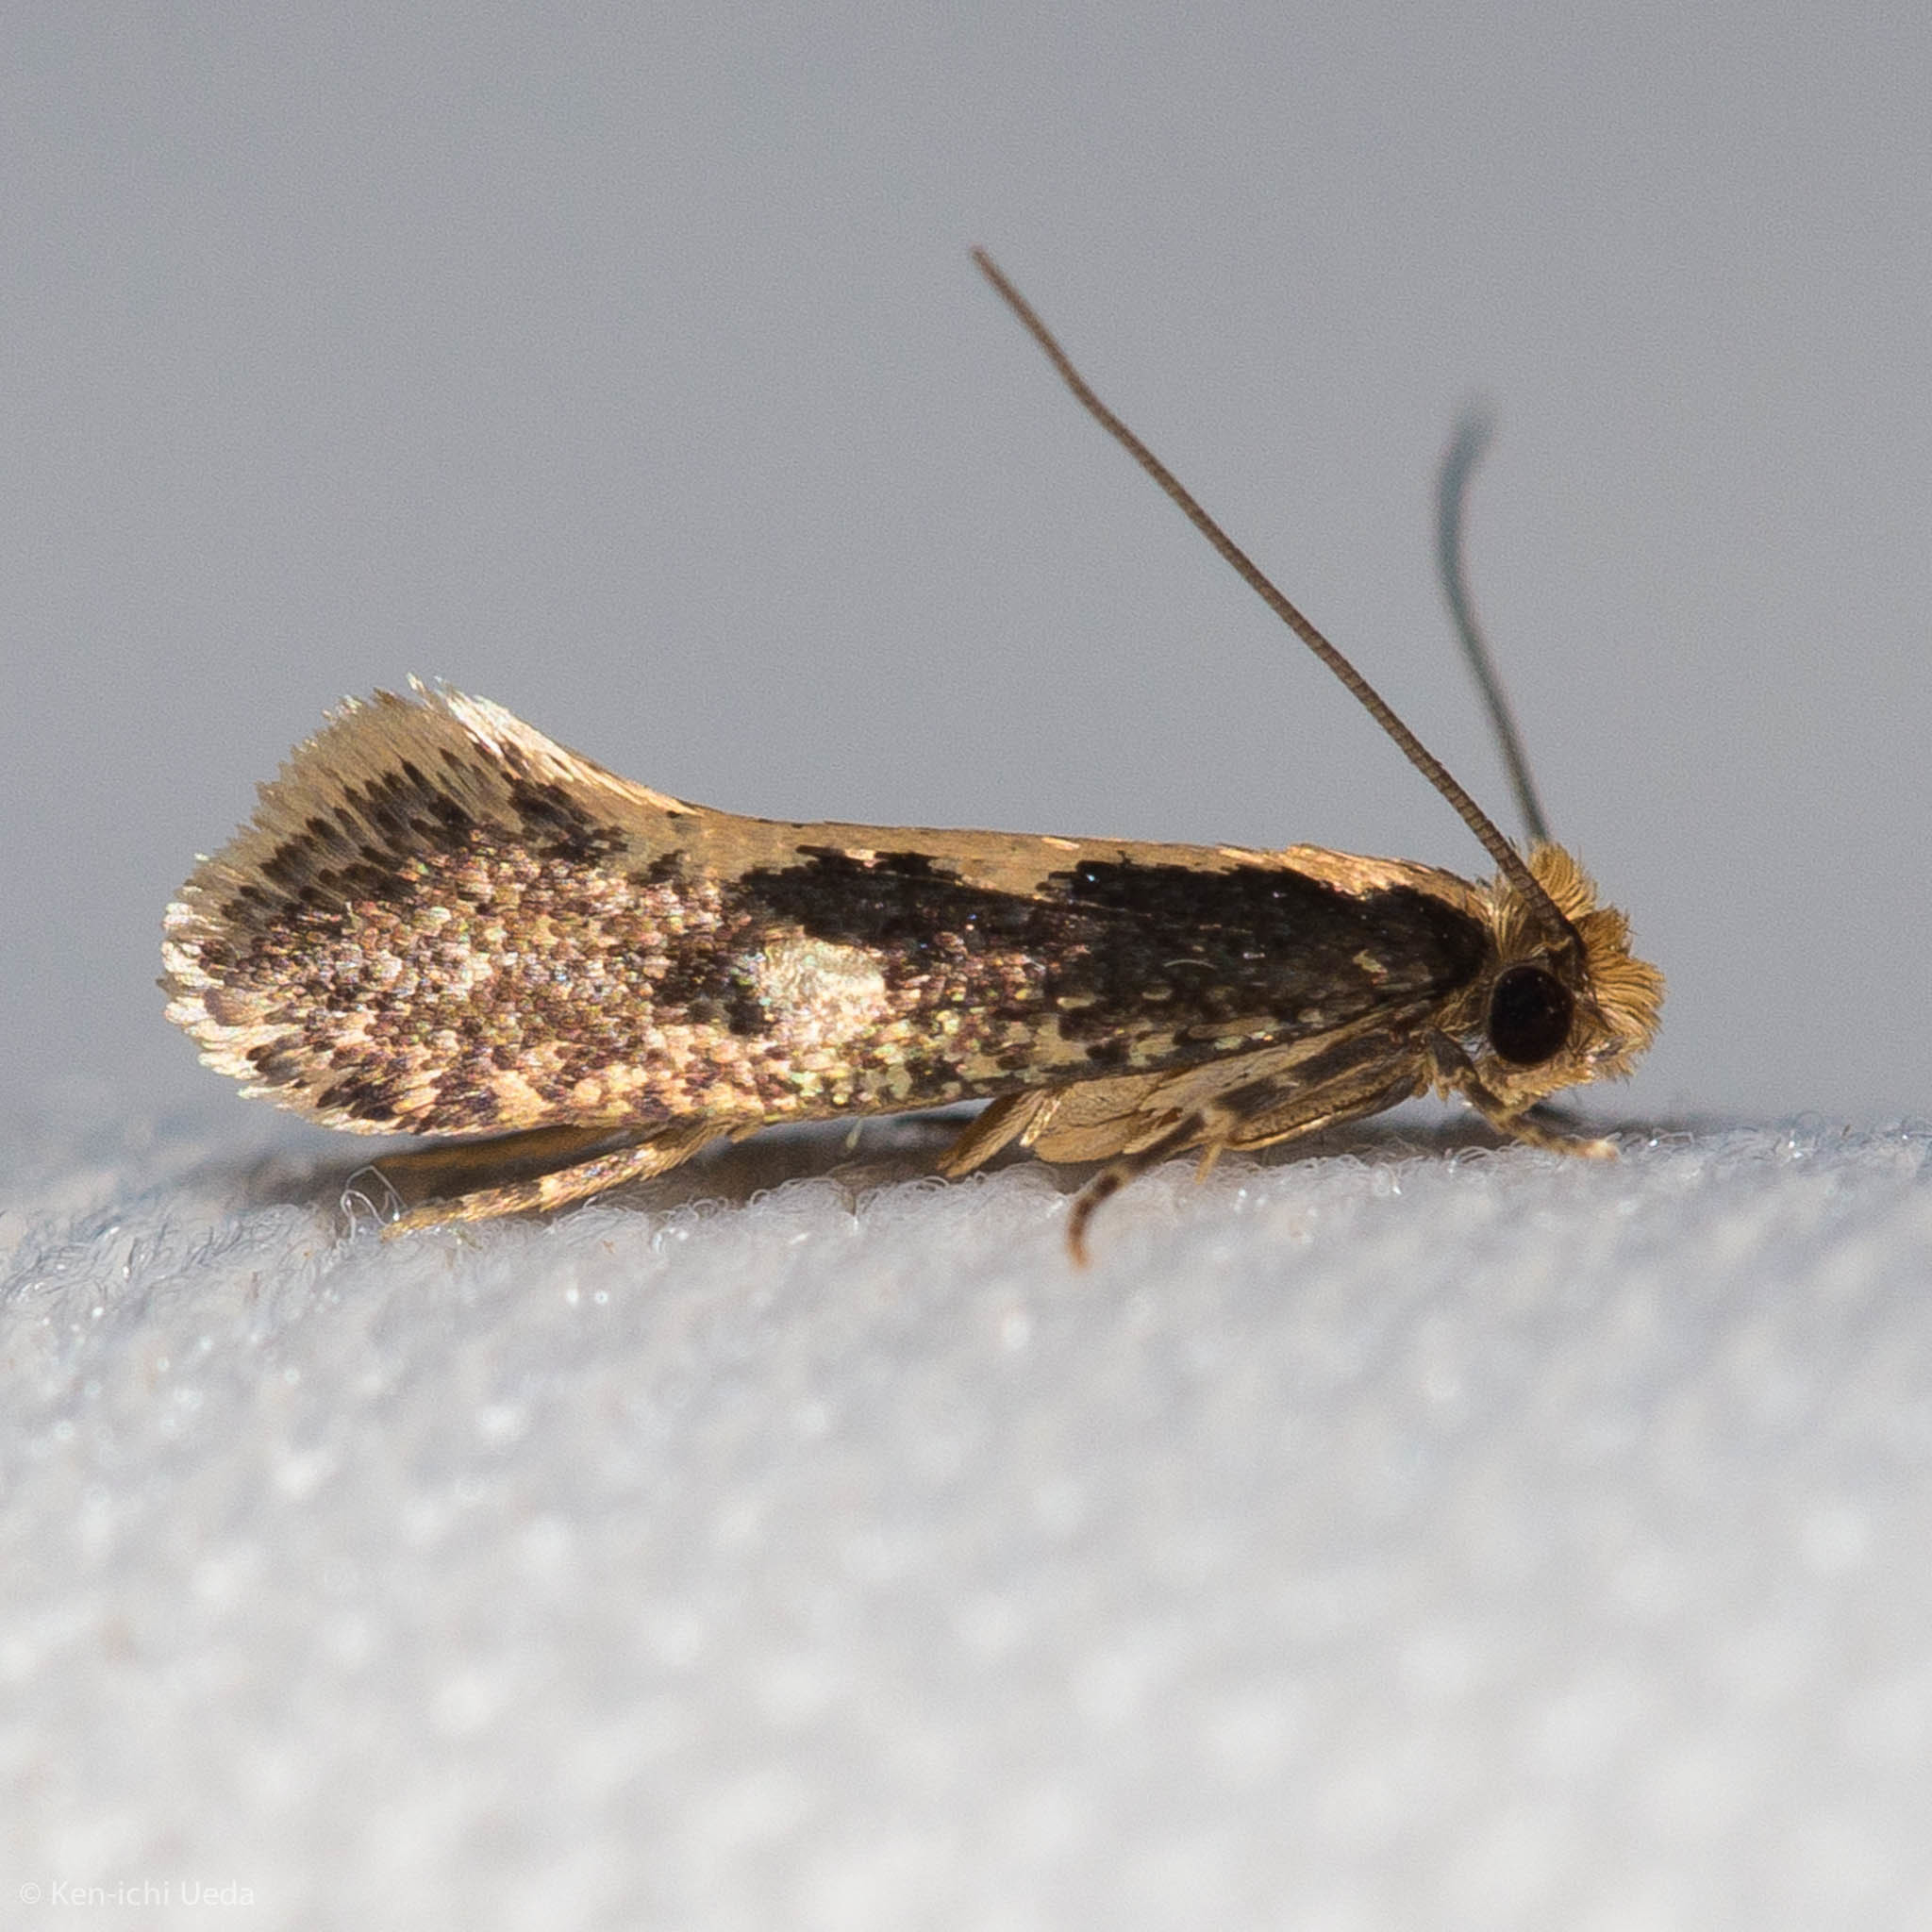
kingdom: Animalia
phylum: Arthropoda
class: Insecta
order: Lepidoptera
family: Tineidae
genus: Monopis
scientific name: Monopis crocicapitella
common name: Moth
